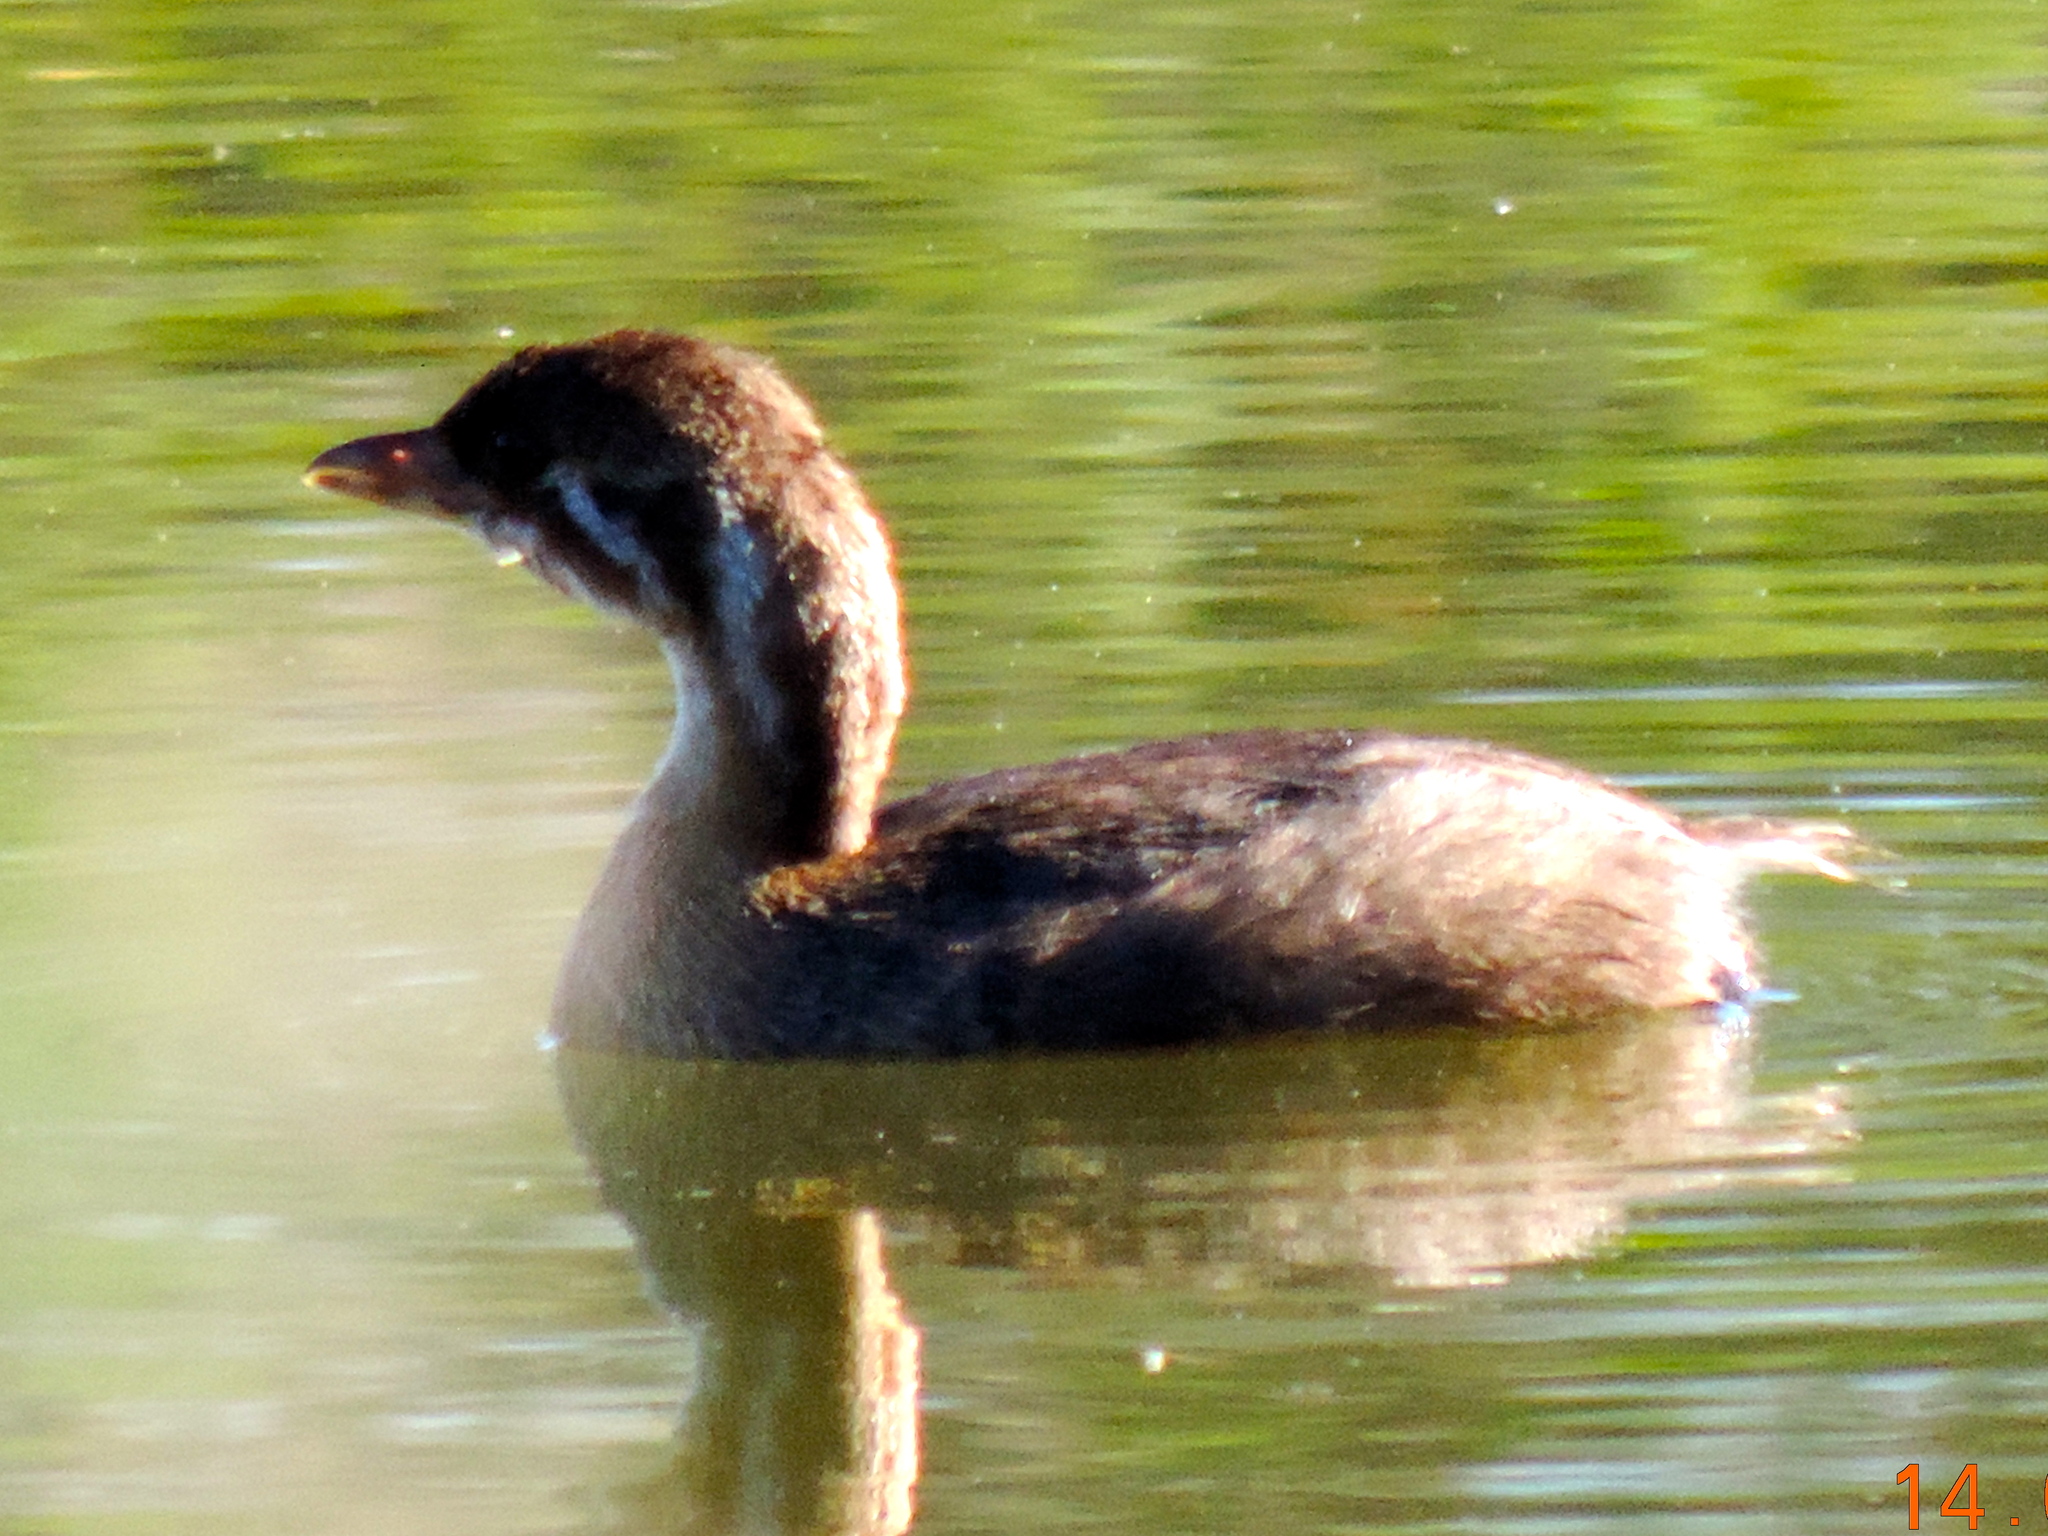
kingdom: Animalia
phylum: Chordata
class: Aves
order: Podicipediformes
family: Podicipedidae
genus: Podilymbus
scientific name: Podilymbus podiceps
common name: Pied-billed grebe
